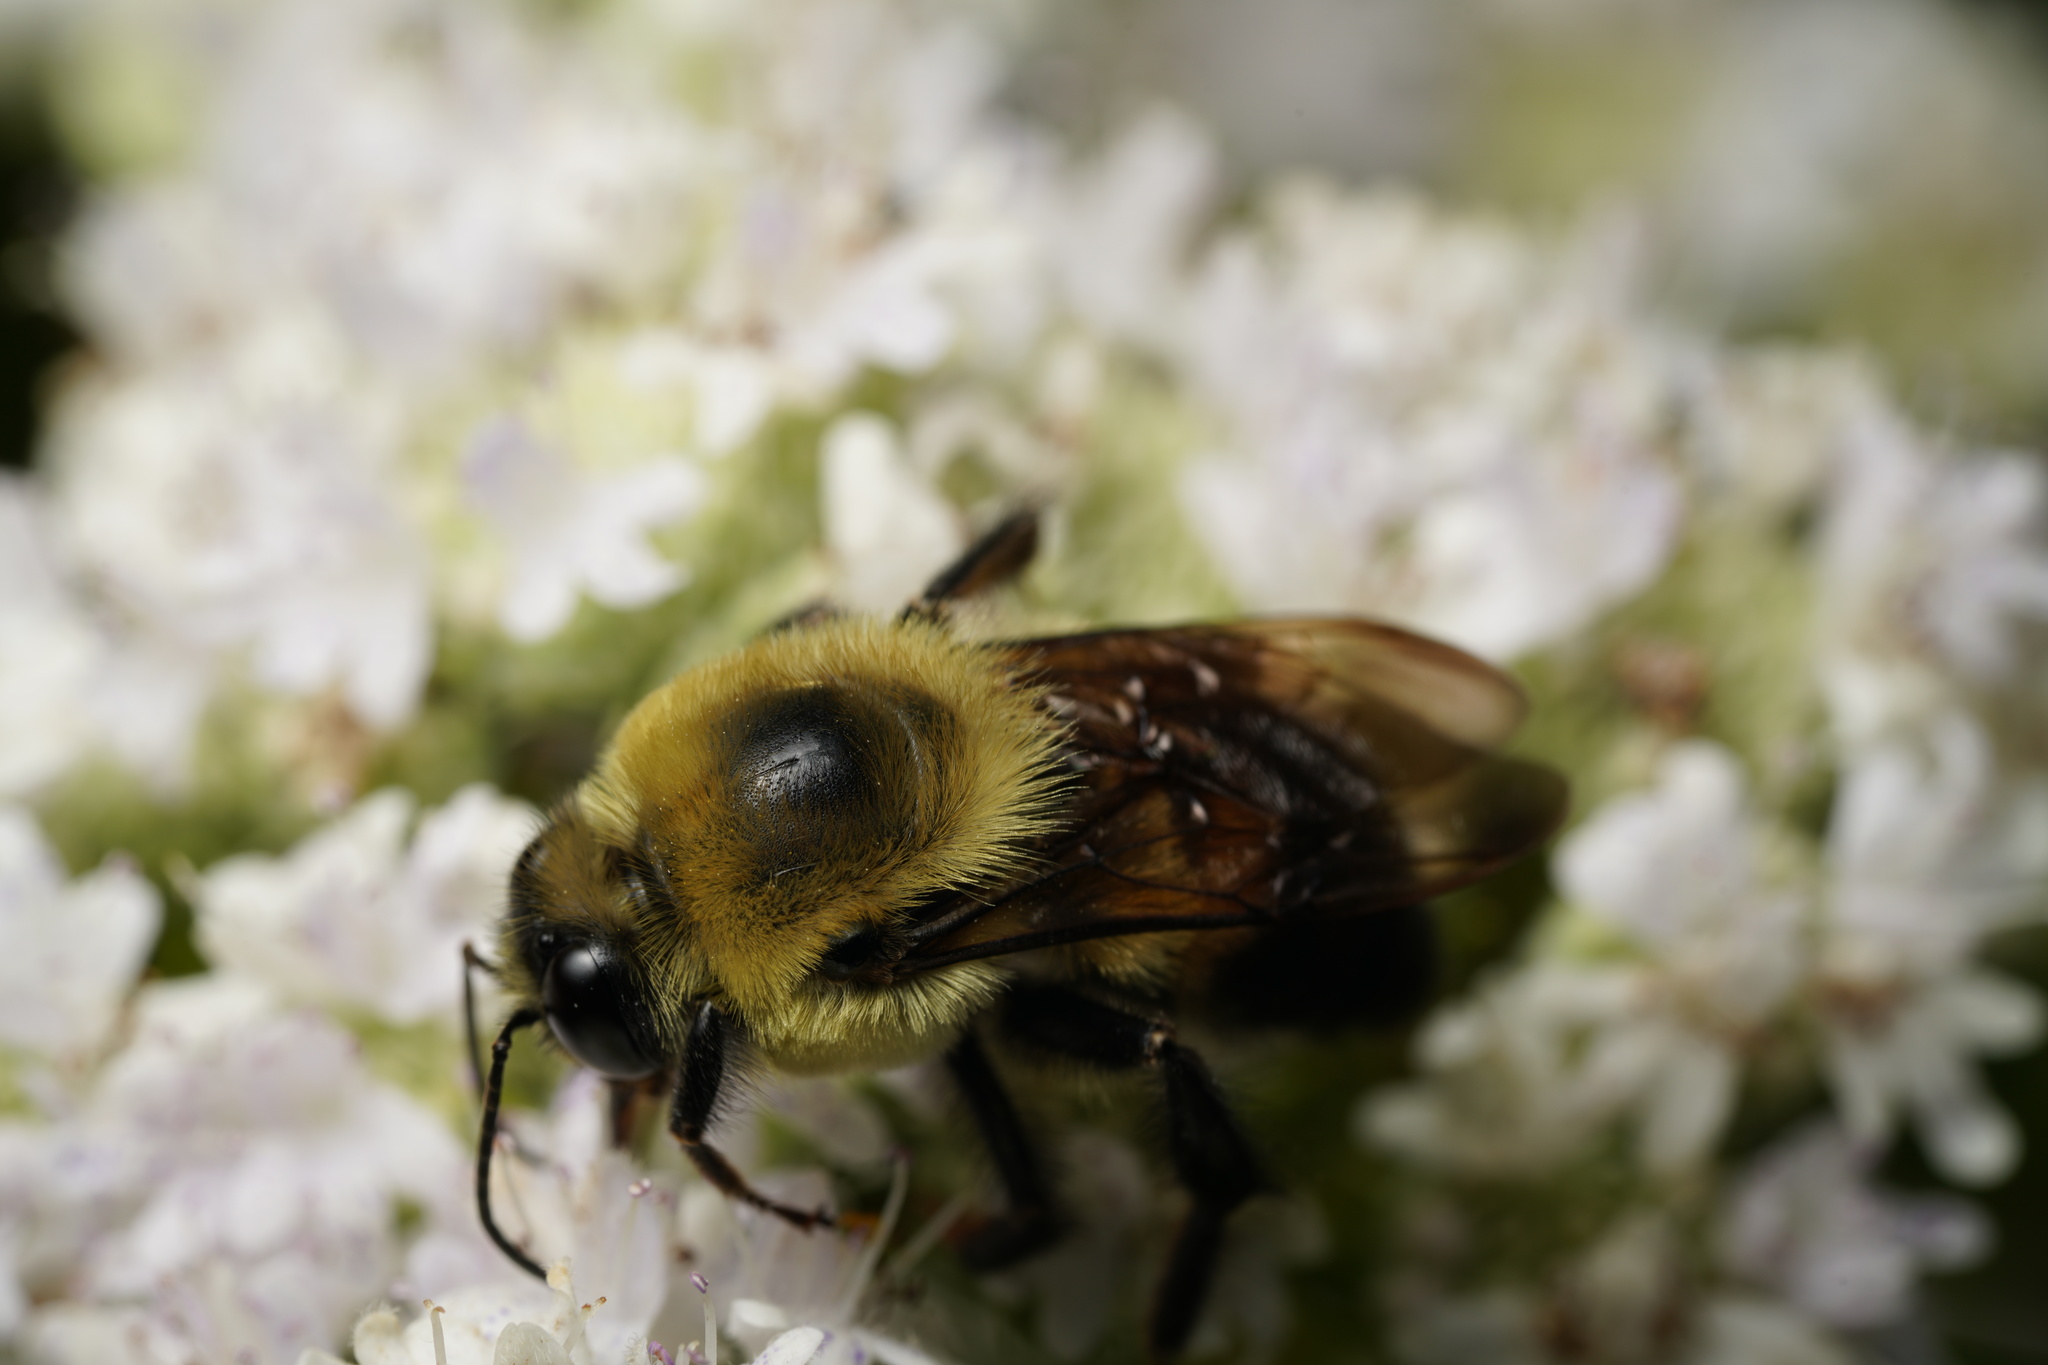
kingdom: Animalia
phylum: Arthropoda
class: Insecta
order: Hymenoptera
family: Apidae
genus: Bombus
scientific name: Bombus griseocollis
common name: Brown-belted bumble bee
